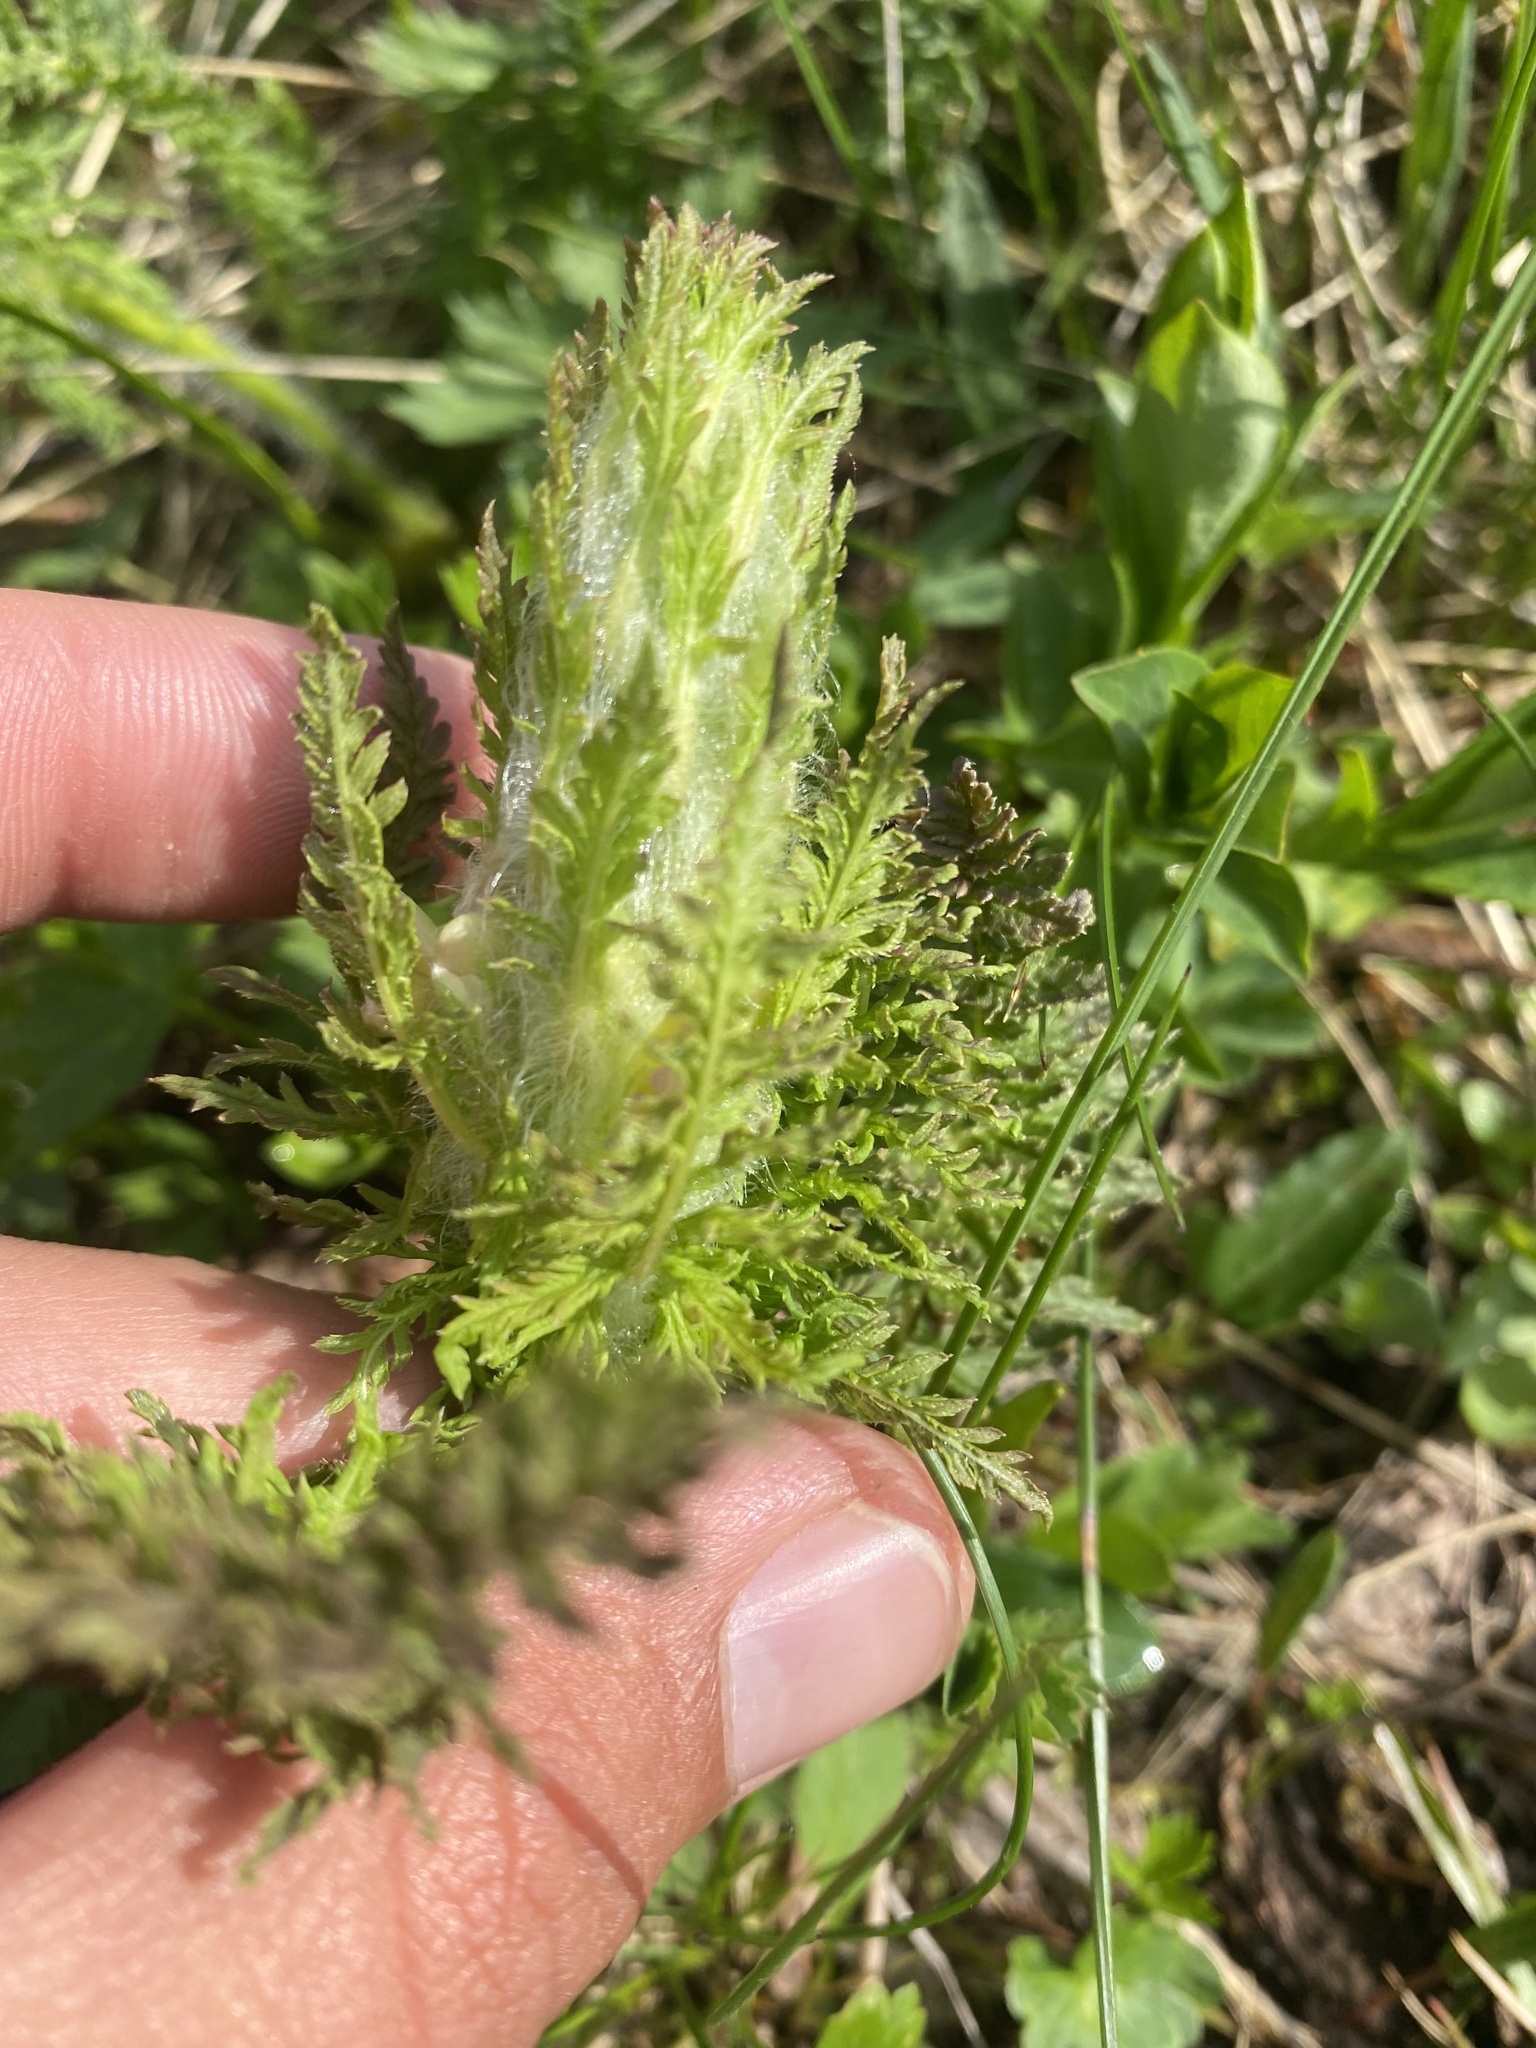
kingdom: Plantae
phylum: Tracheophyta
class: Magnoliopsida
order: Lamiales
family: Orobanchaceae
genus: Pedicularis
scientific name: Pedicularis condensata
